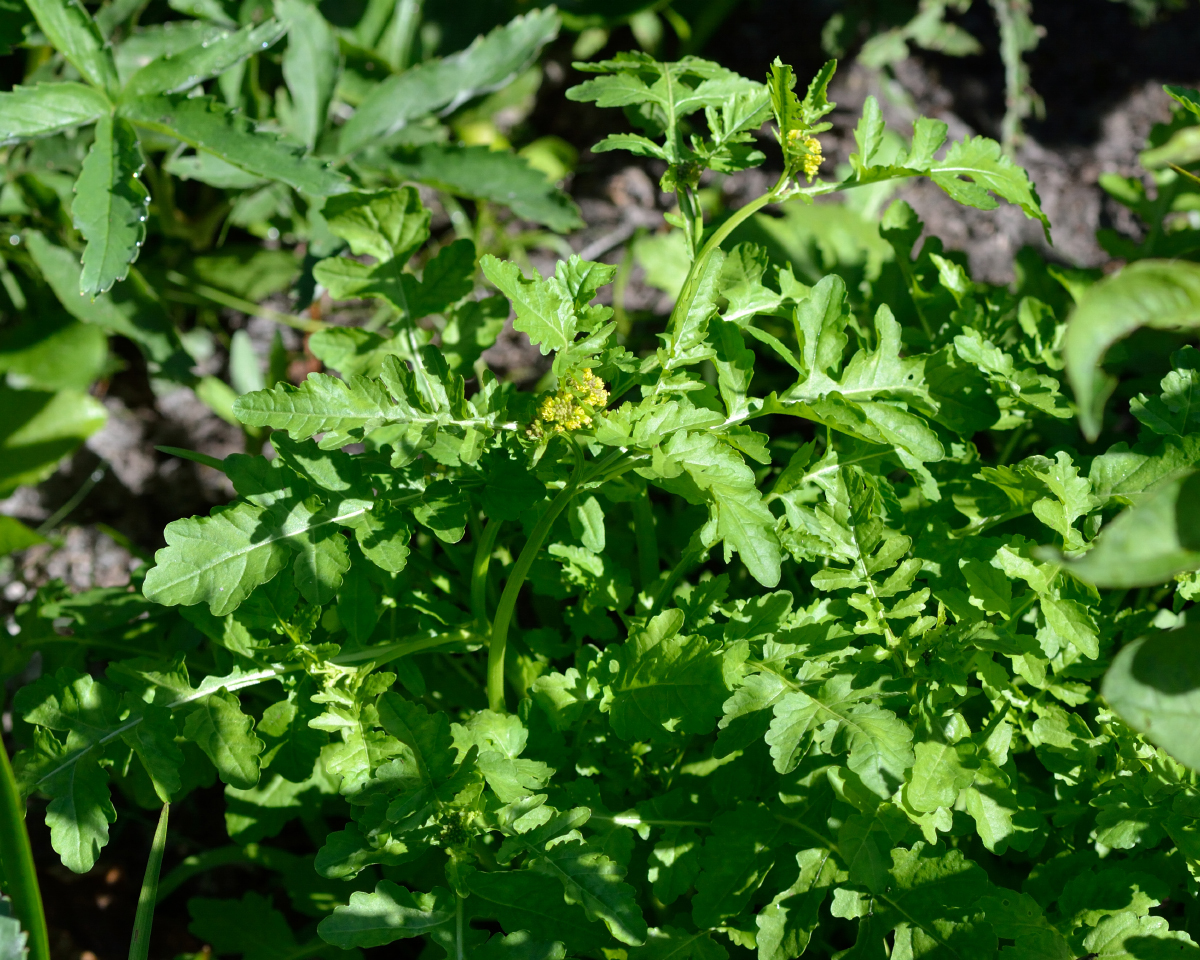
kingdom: Plantae
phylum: Tracheophyta
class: Magnoliopsida
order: Brassicales
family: Brassicaceae
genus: Rorippa
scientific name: Rorippa palustris
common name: Marsh yellow-cress
